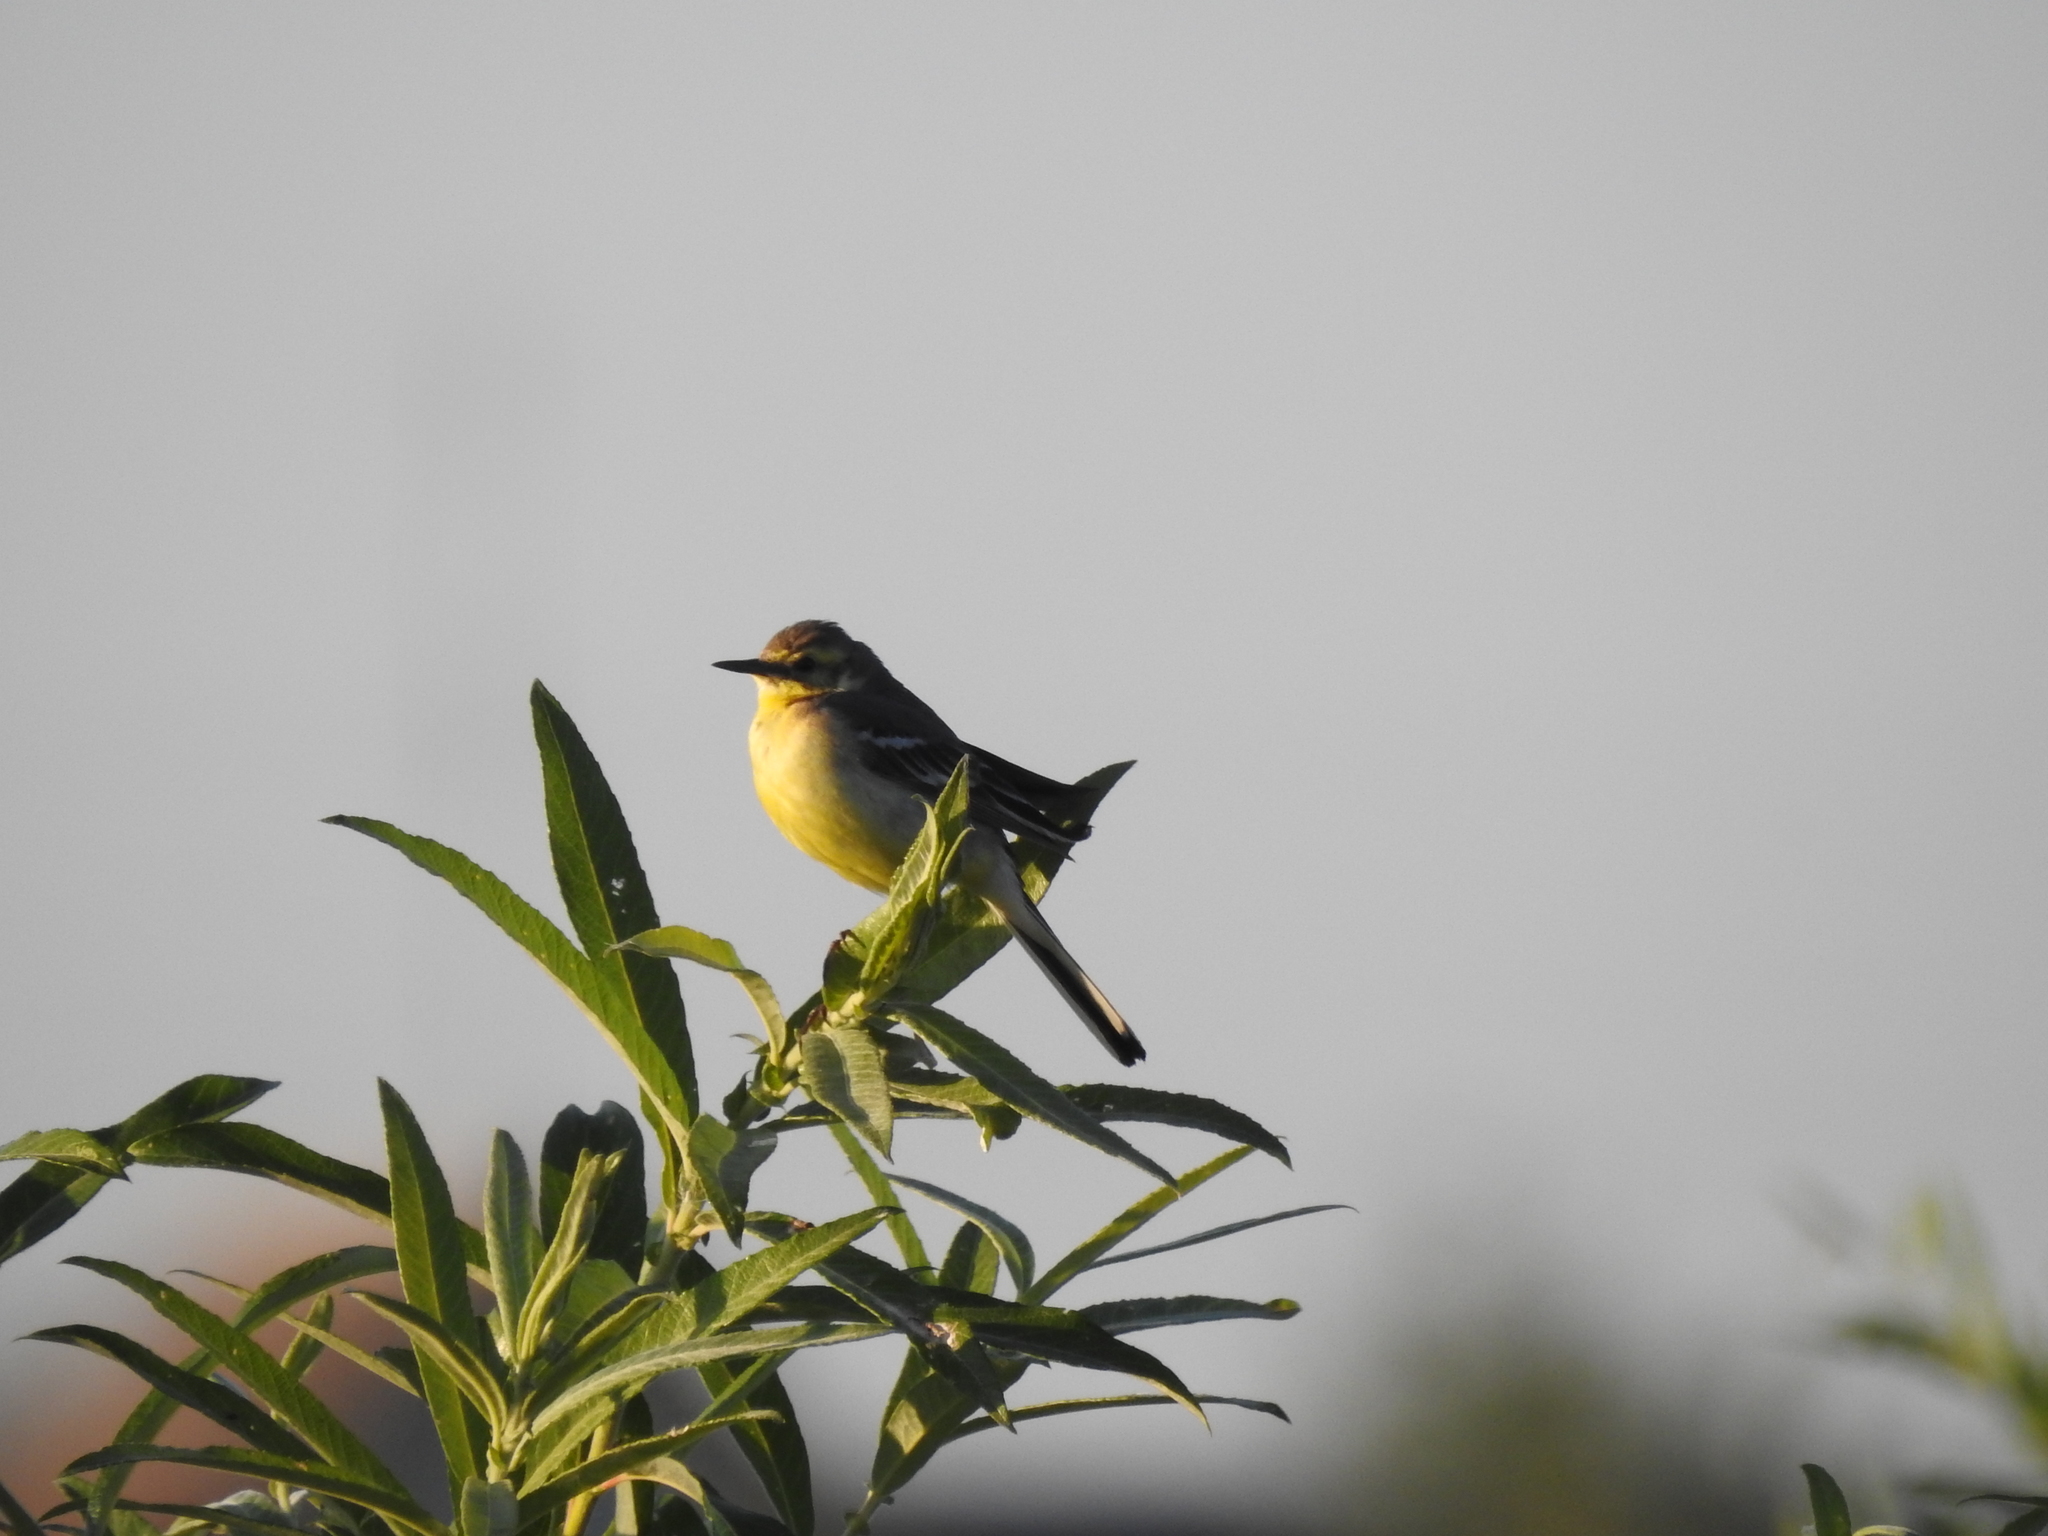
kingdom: Animalia
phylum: Chordata
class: Aves
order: Passeriformes
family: Motacillidae
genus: Motacilla
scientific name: Motacilla flava
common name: Western yellow wagtail
